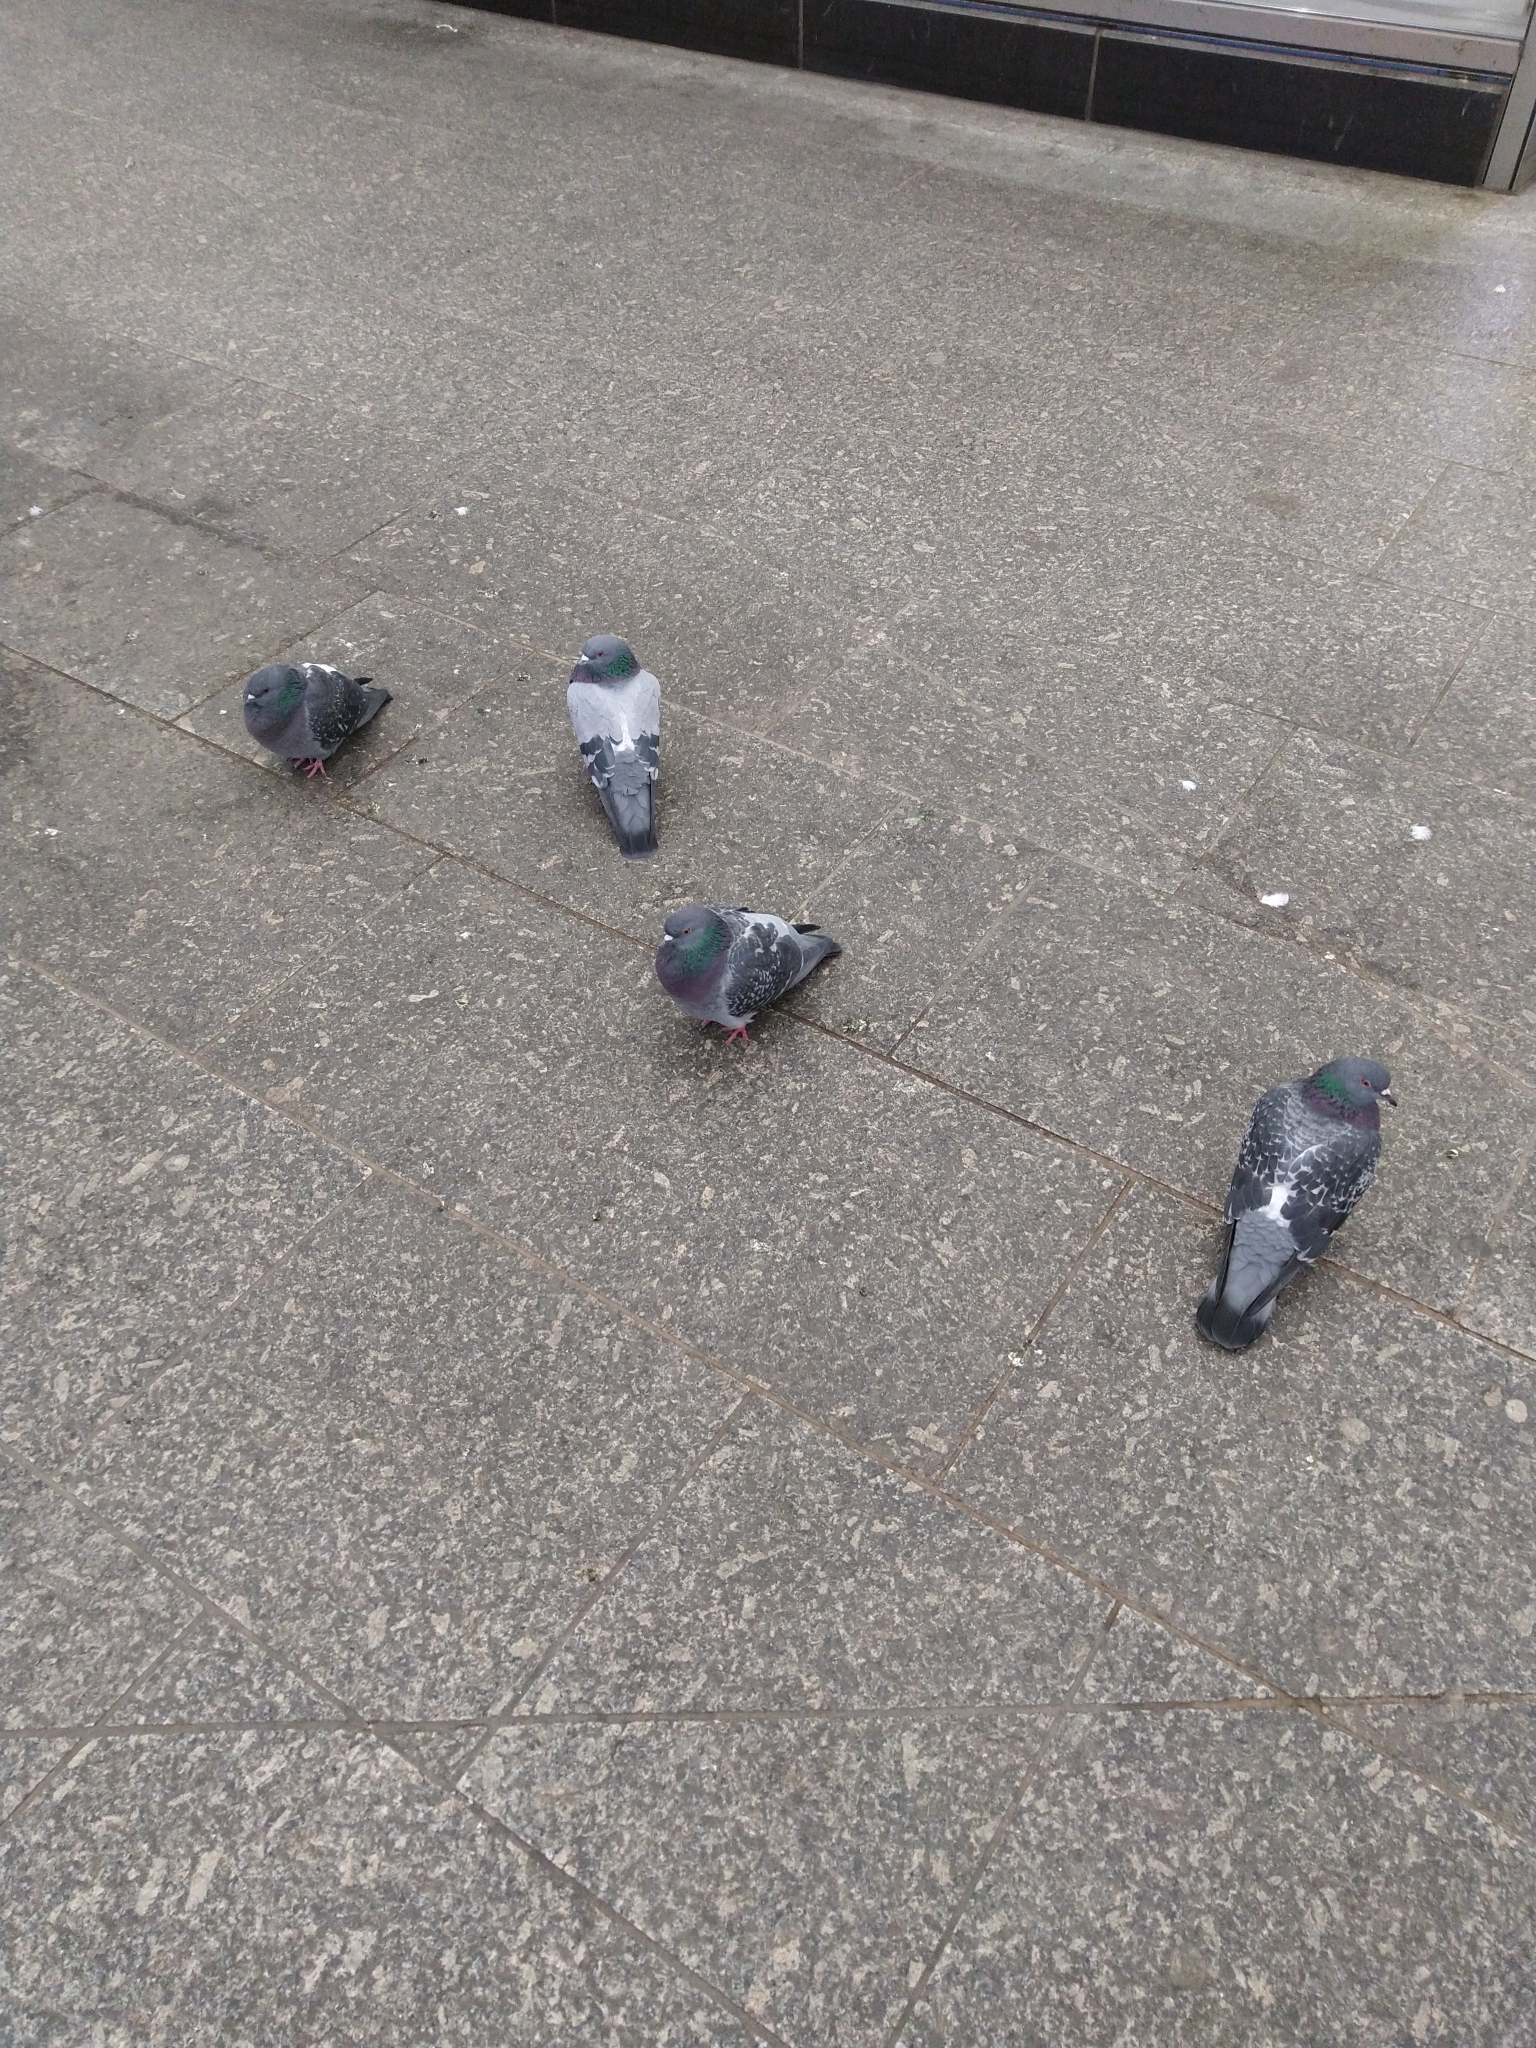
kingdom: Animalia
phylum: Chordata
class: Aves
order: Columbiformes
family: Columbidae
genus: Columba
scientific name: Columba livia
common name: Rock pigeon
